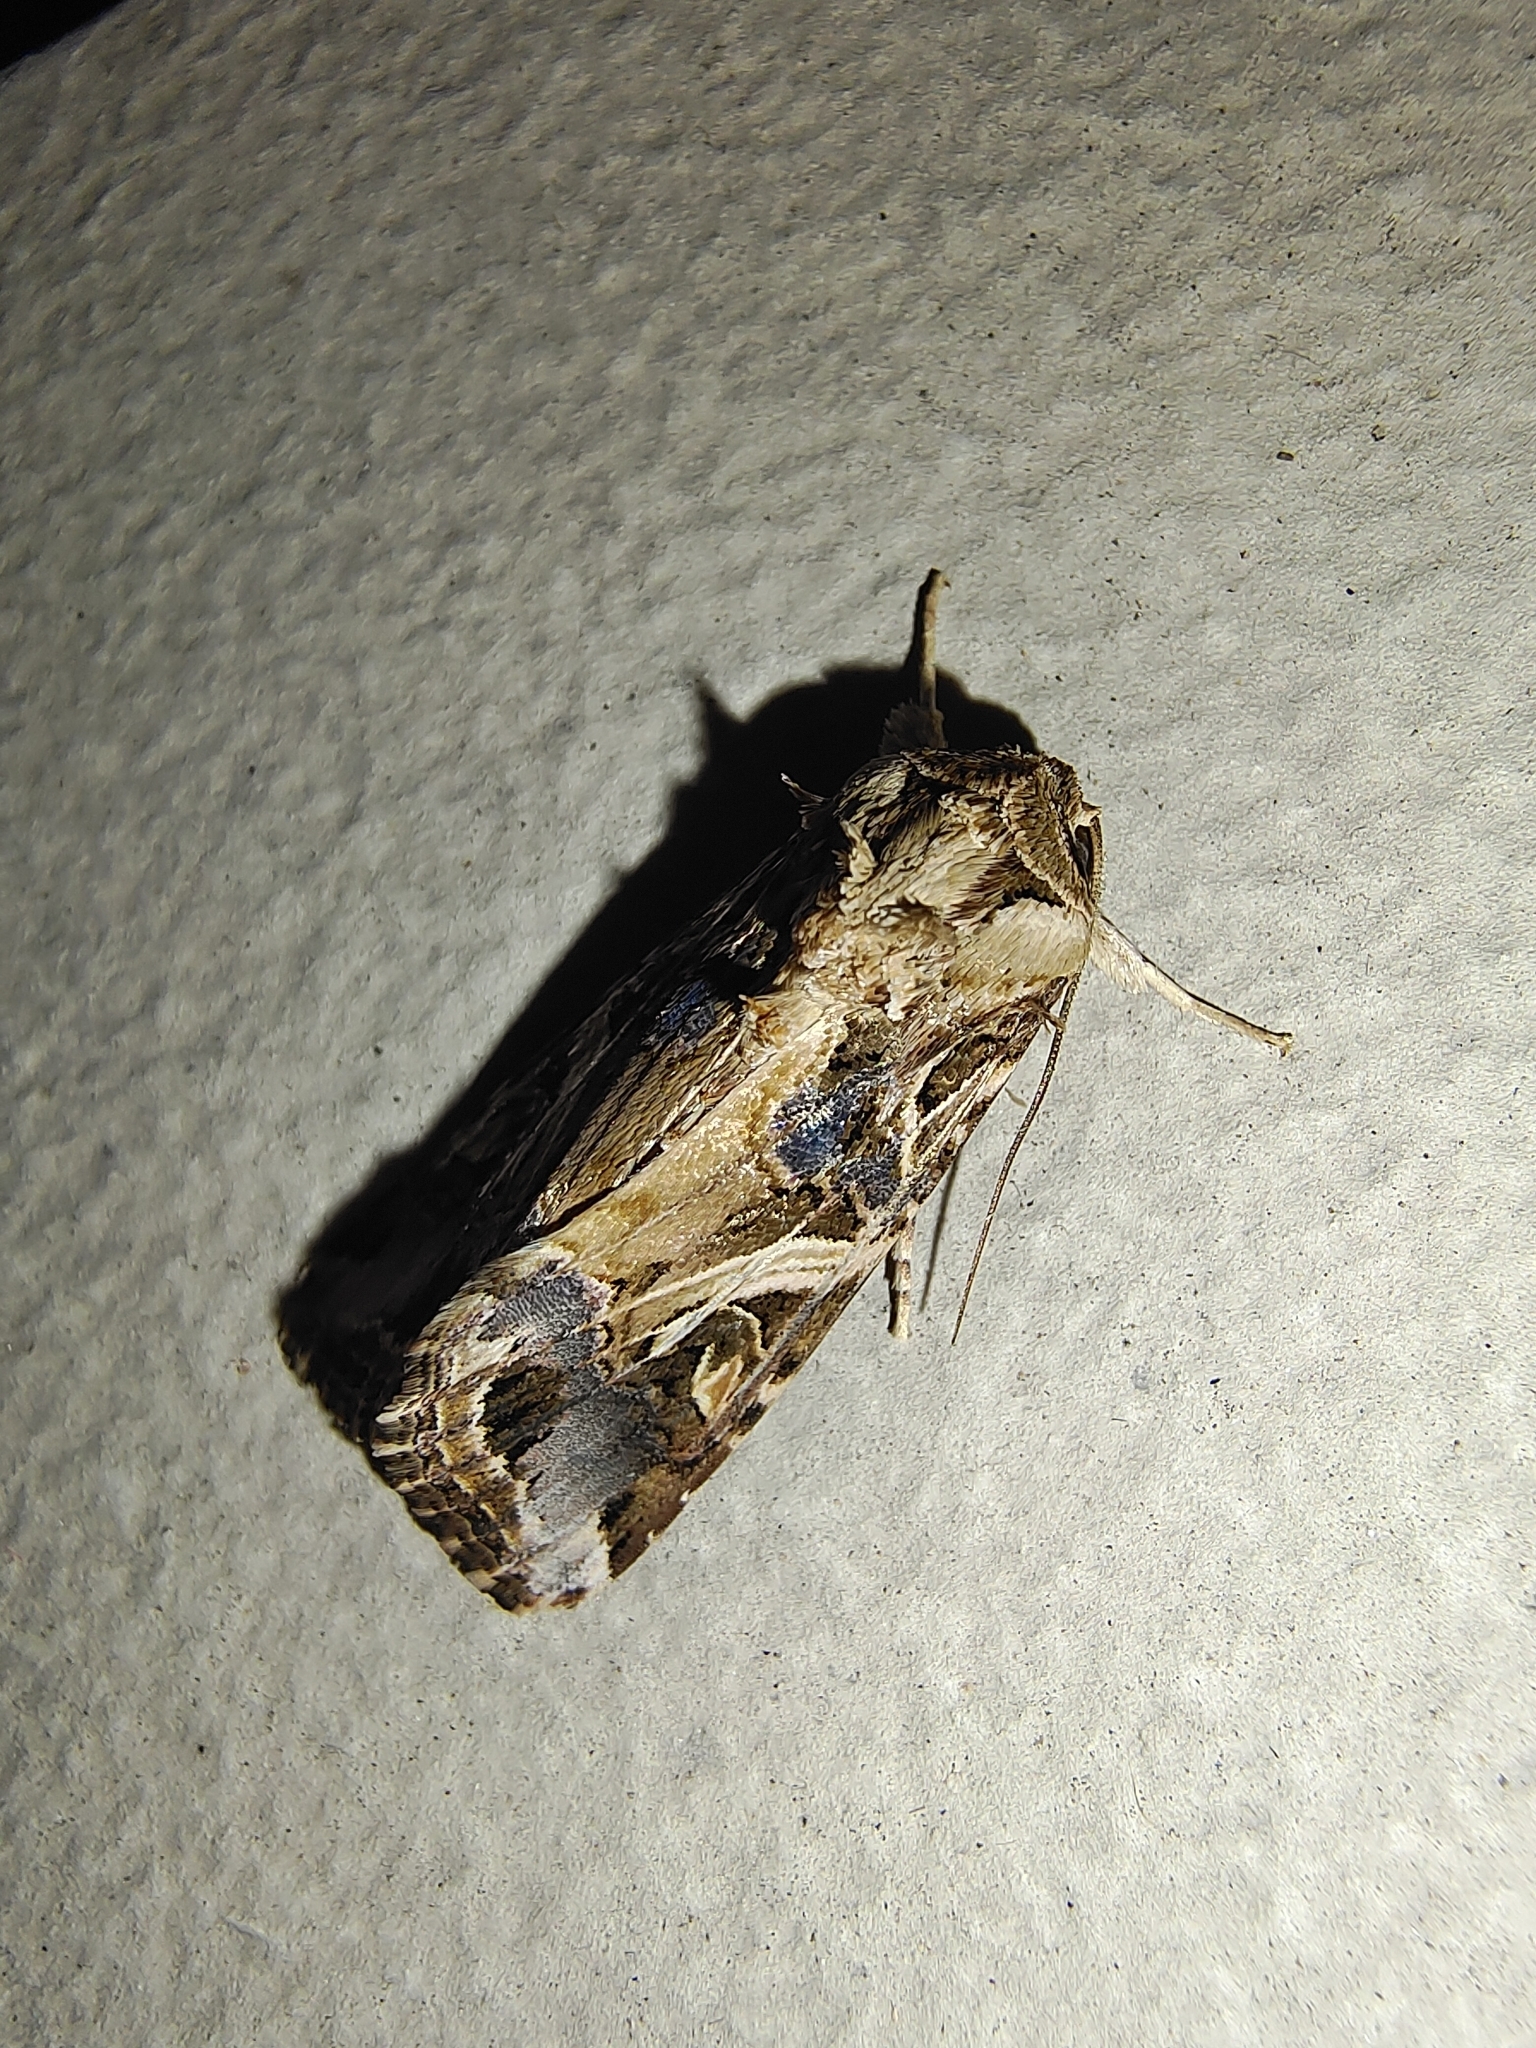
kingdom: Animalia
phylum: Arthropoda
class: Insecta
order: Lepidoptera
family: Noctuidae
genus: Spodoptera
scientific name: Spodoptera litura
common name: Asian cotton leafworm
